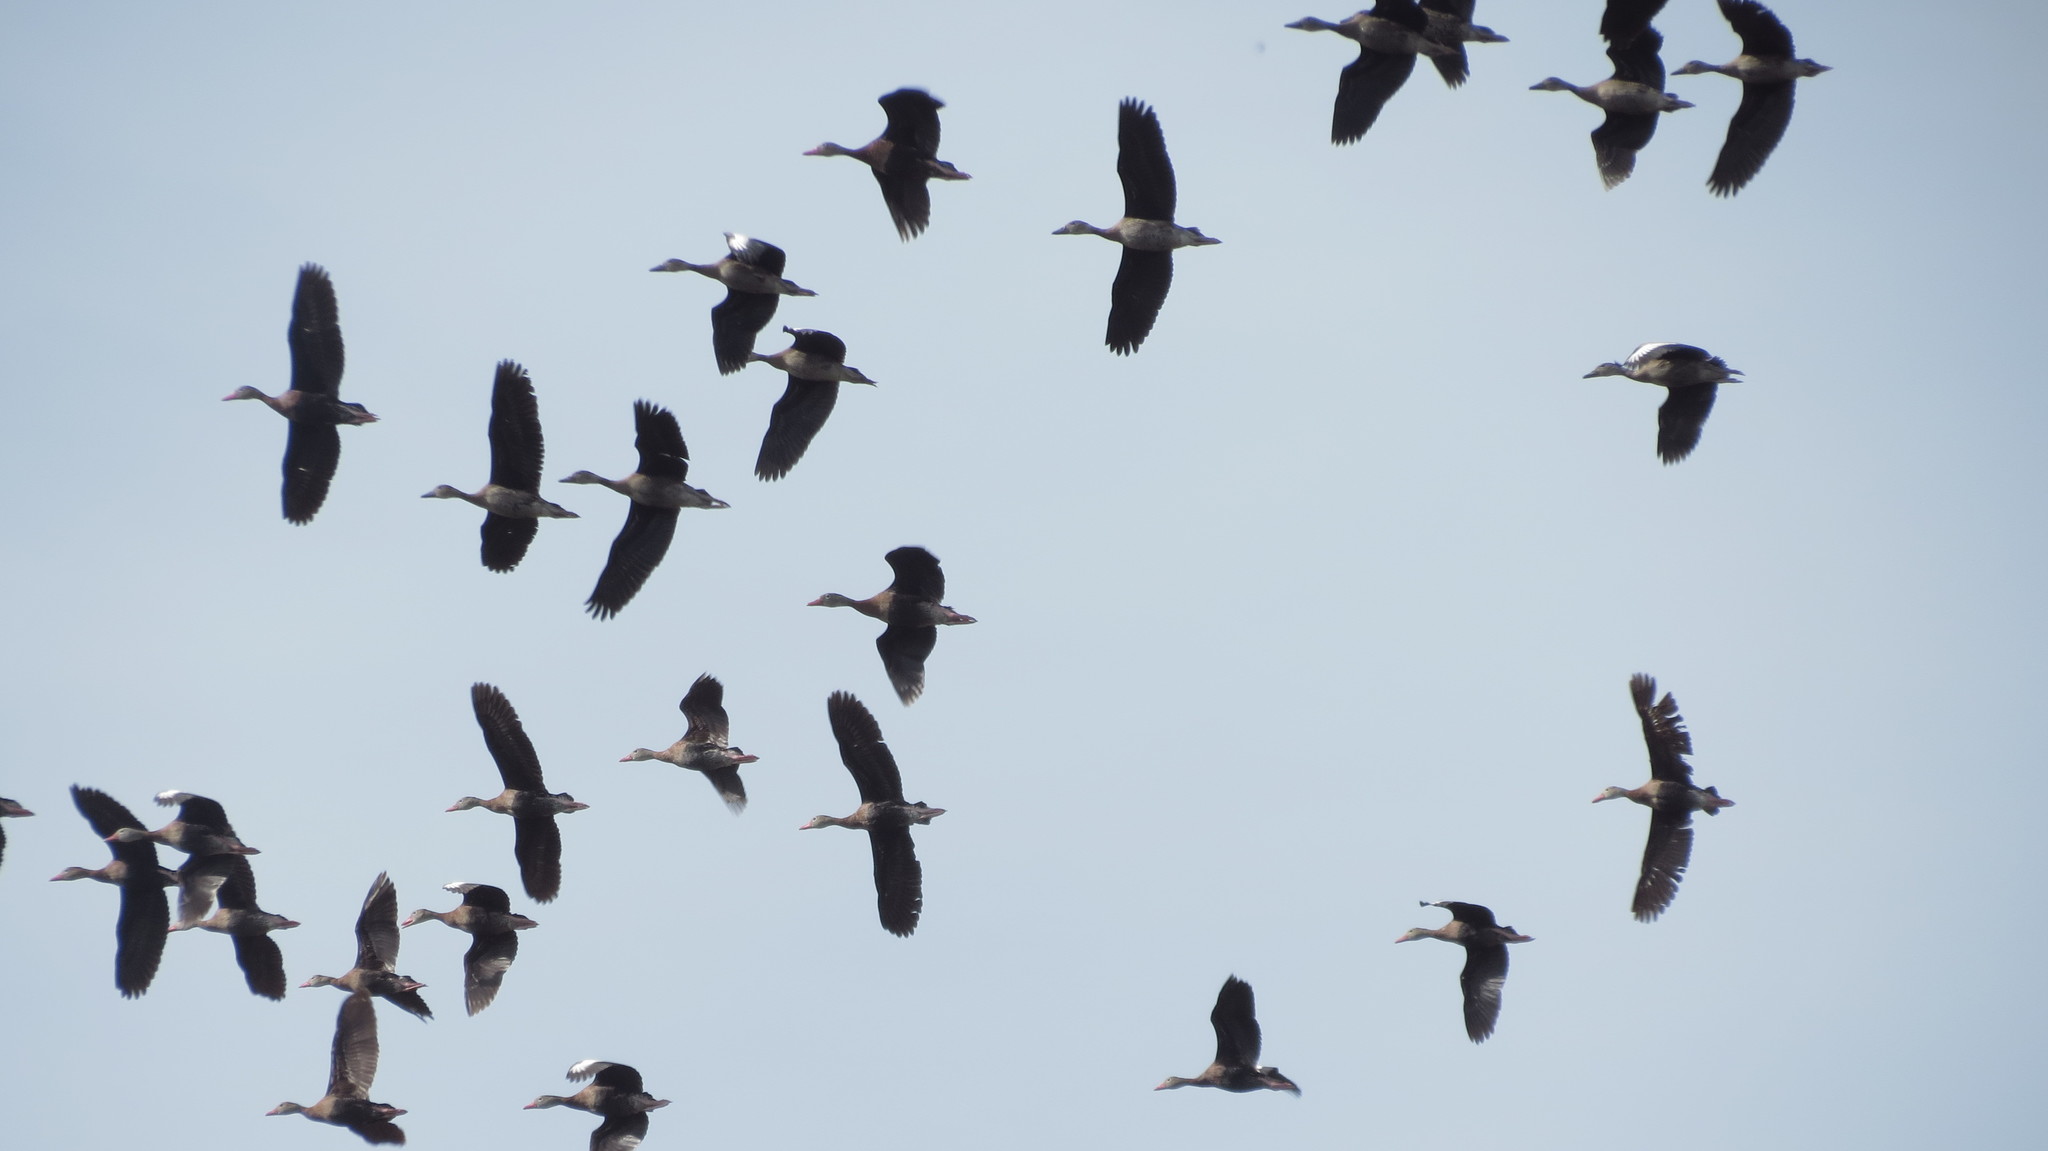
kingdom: Animalia
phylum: Chordata
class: Aves
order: Anseriformes
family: Anatidae
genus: Dendrocygna
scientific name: Dendrocygna autumnalis
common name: Black-bellied whistling duck
